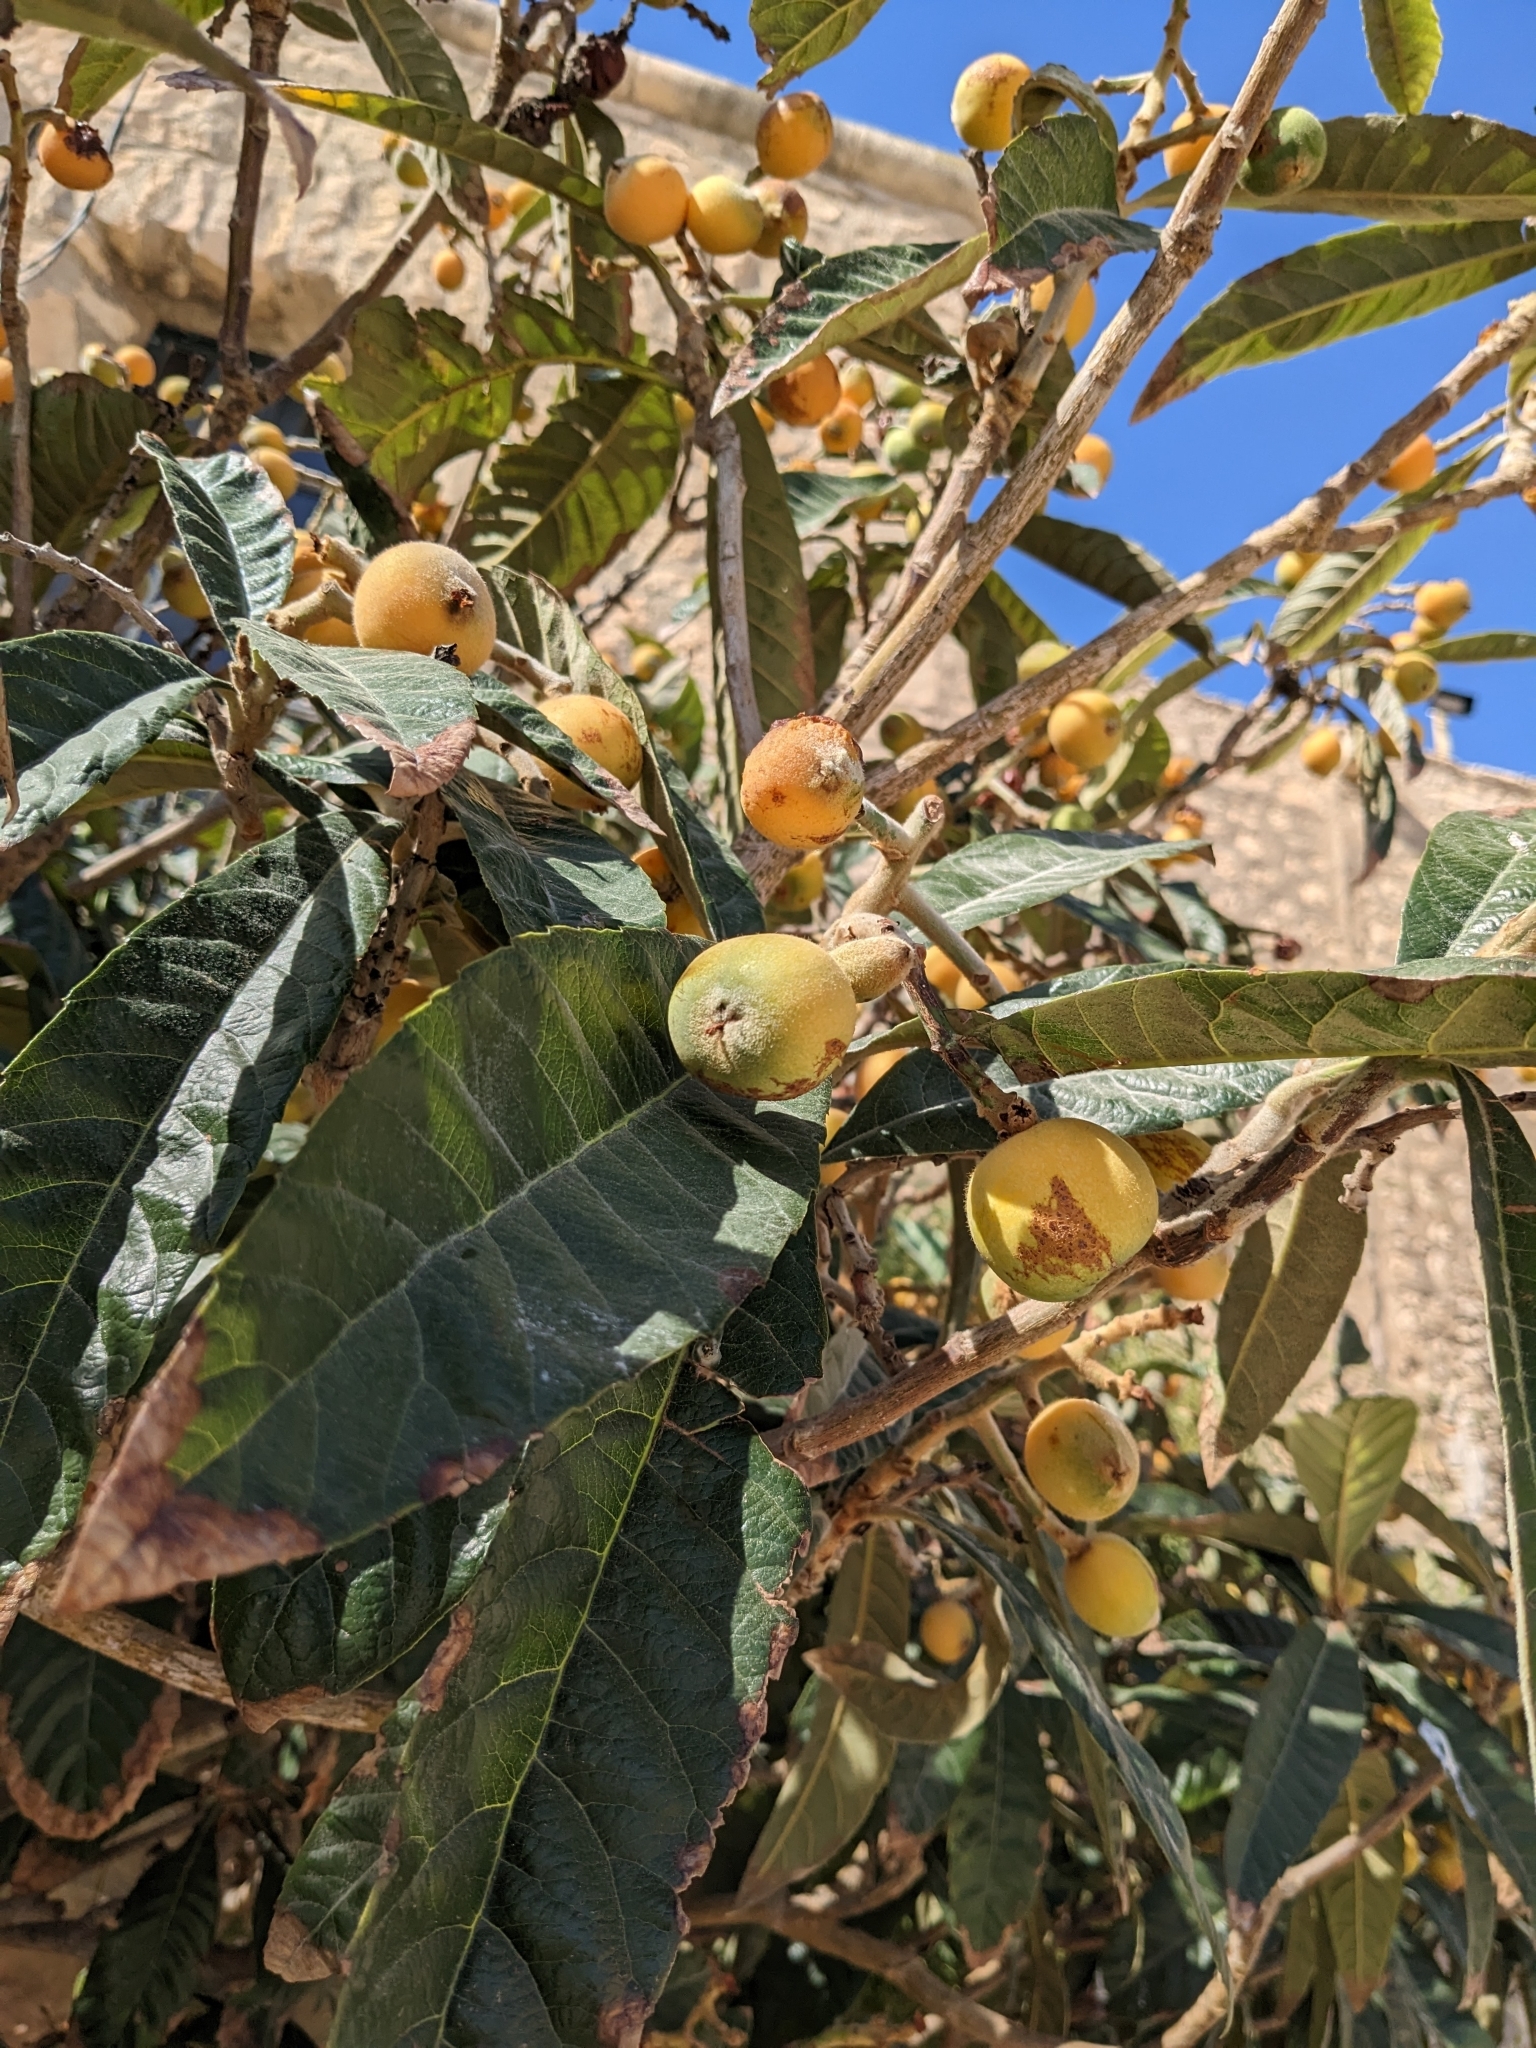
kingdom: Plantae
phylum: Tracheophyta
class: Magnoliopsida
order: Rosales
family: Rosaceae
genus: Rhaphiolepis
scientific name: Rhaphiolepis bibas
